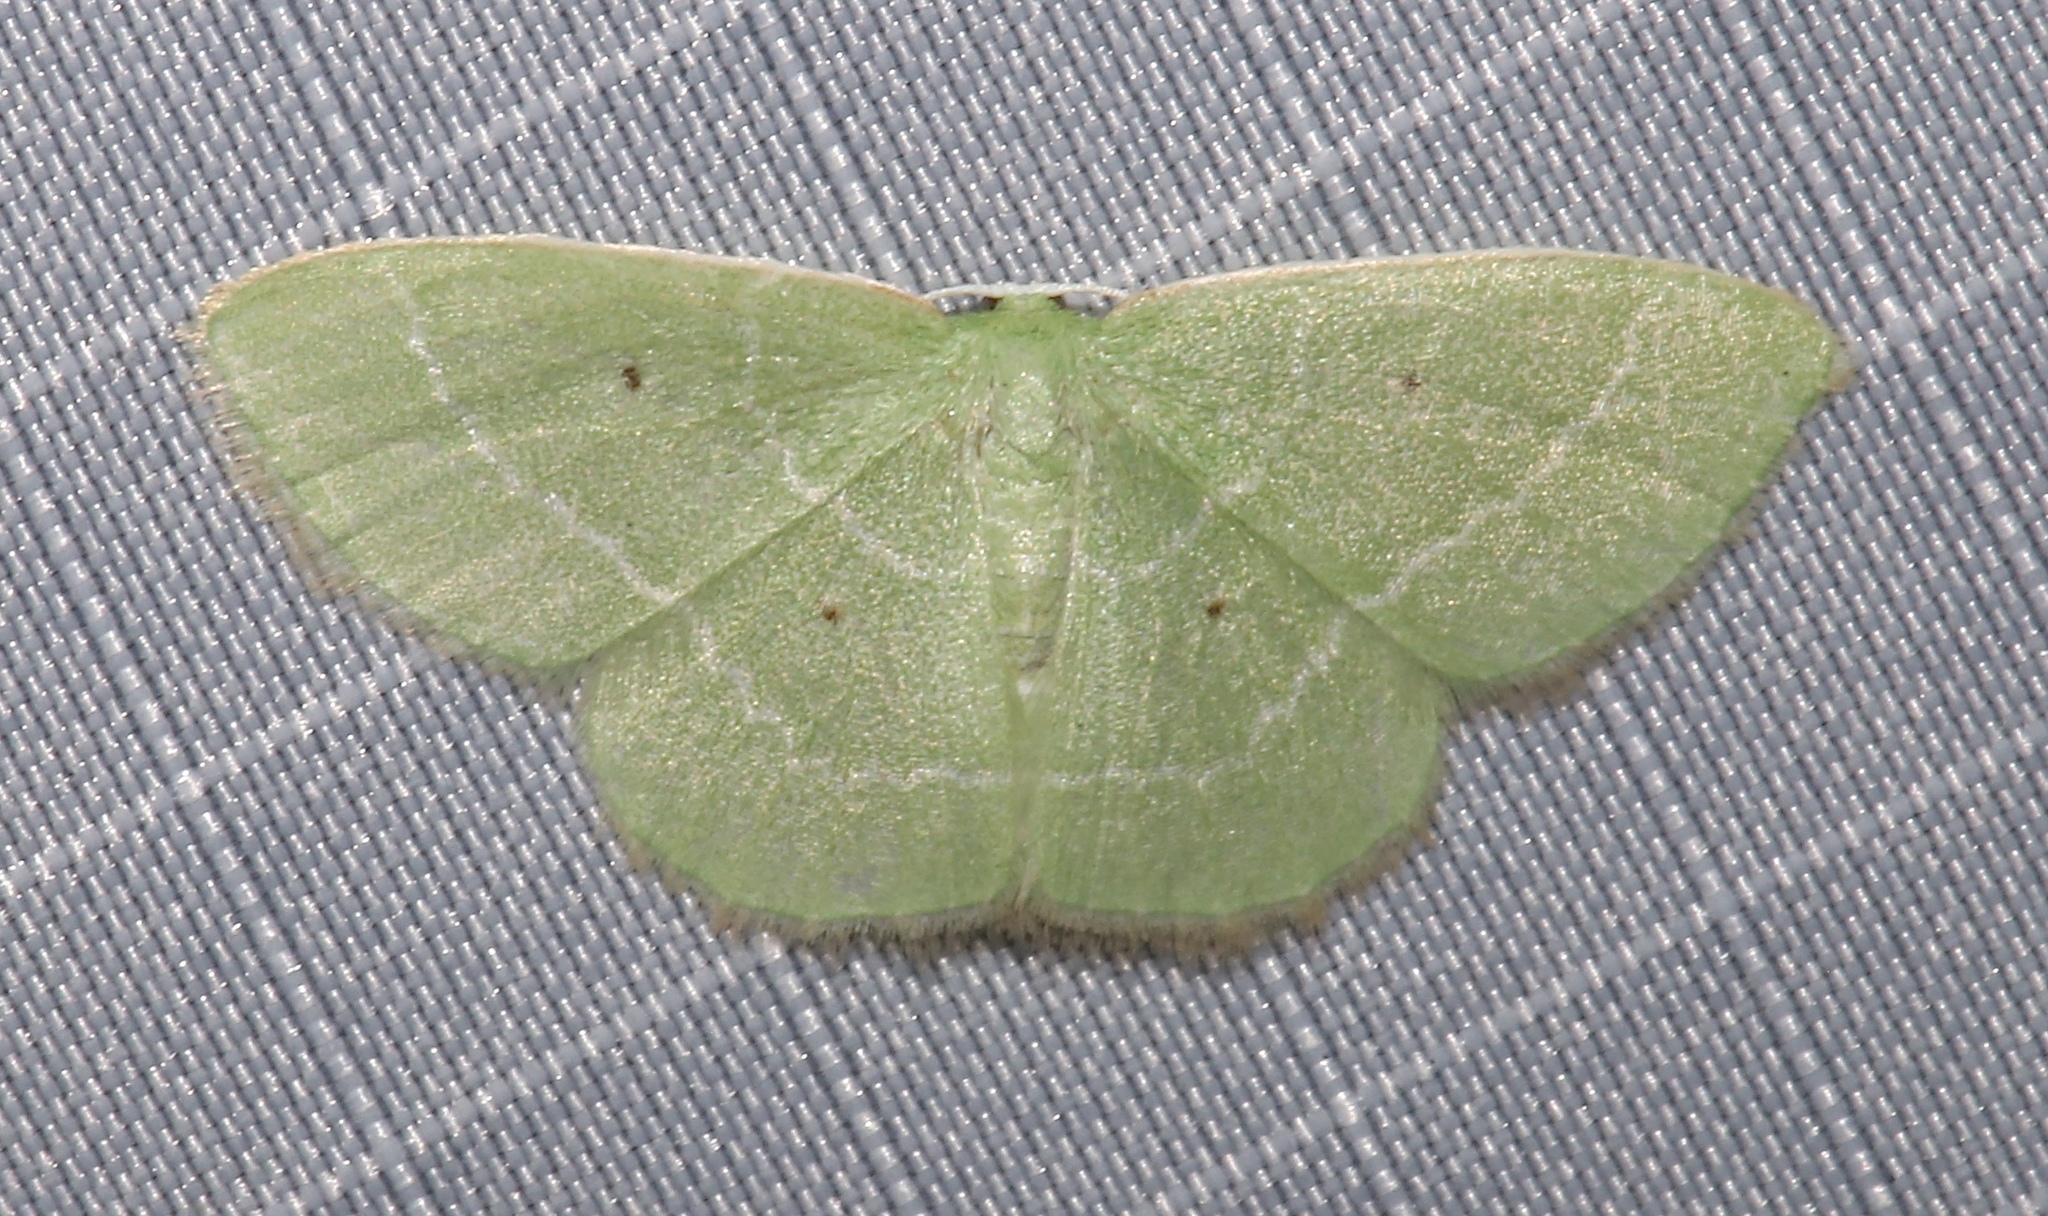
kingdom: Animalia
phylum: Arthropoda
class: Insecta
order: Lepidoptera
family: Geometridae
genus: Nemoria
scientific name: Nemoria elfa
